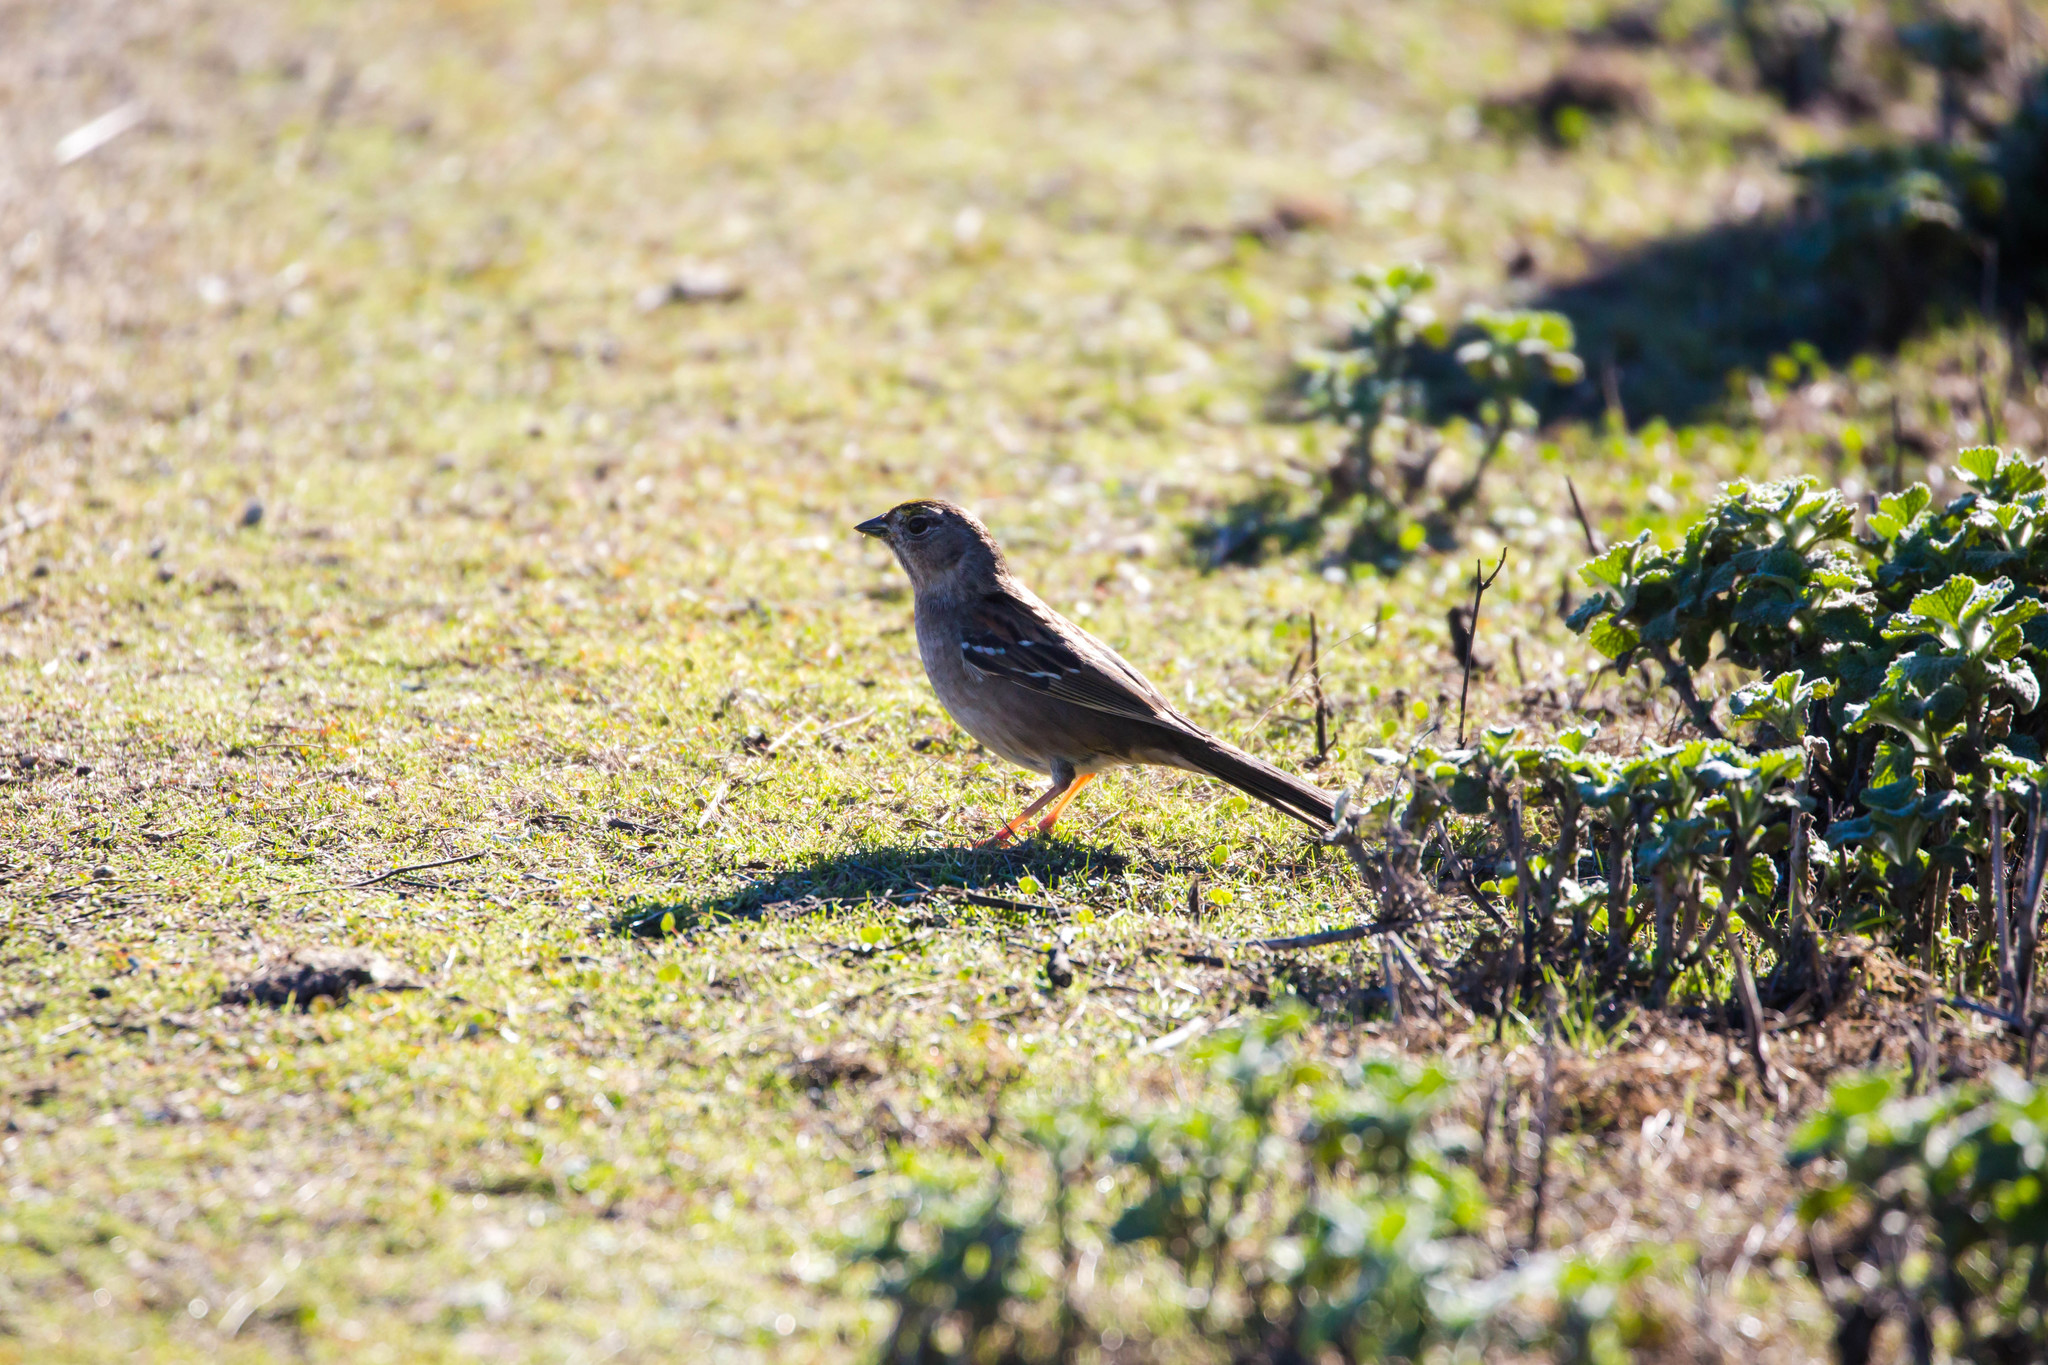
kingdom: Animalia
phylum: Chordata
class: Aves
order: Passeriformes
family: Passerellidae
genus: Zonotrichia
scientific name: Zonotrichia atricapilla
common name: Golden-crowned sparrow
